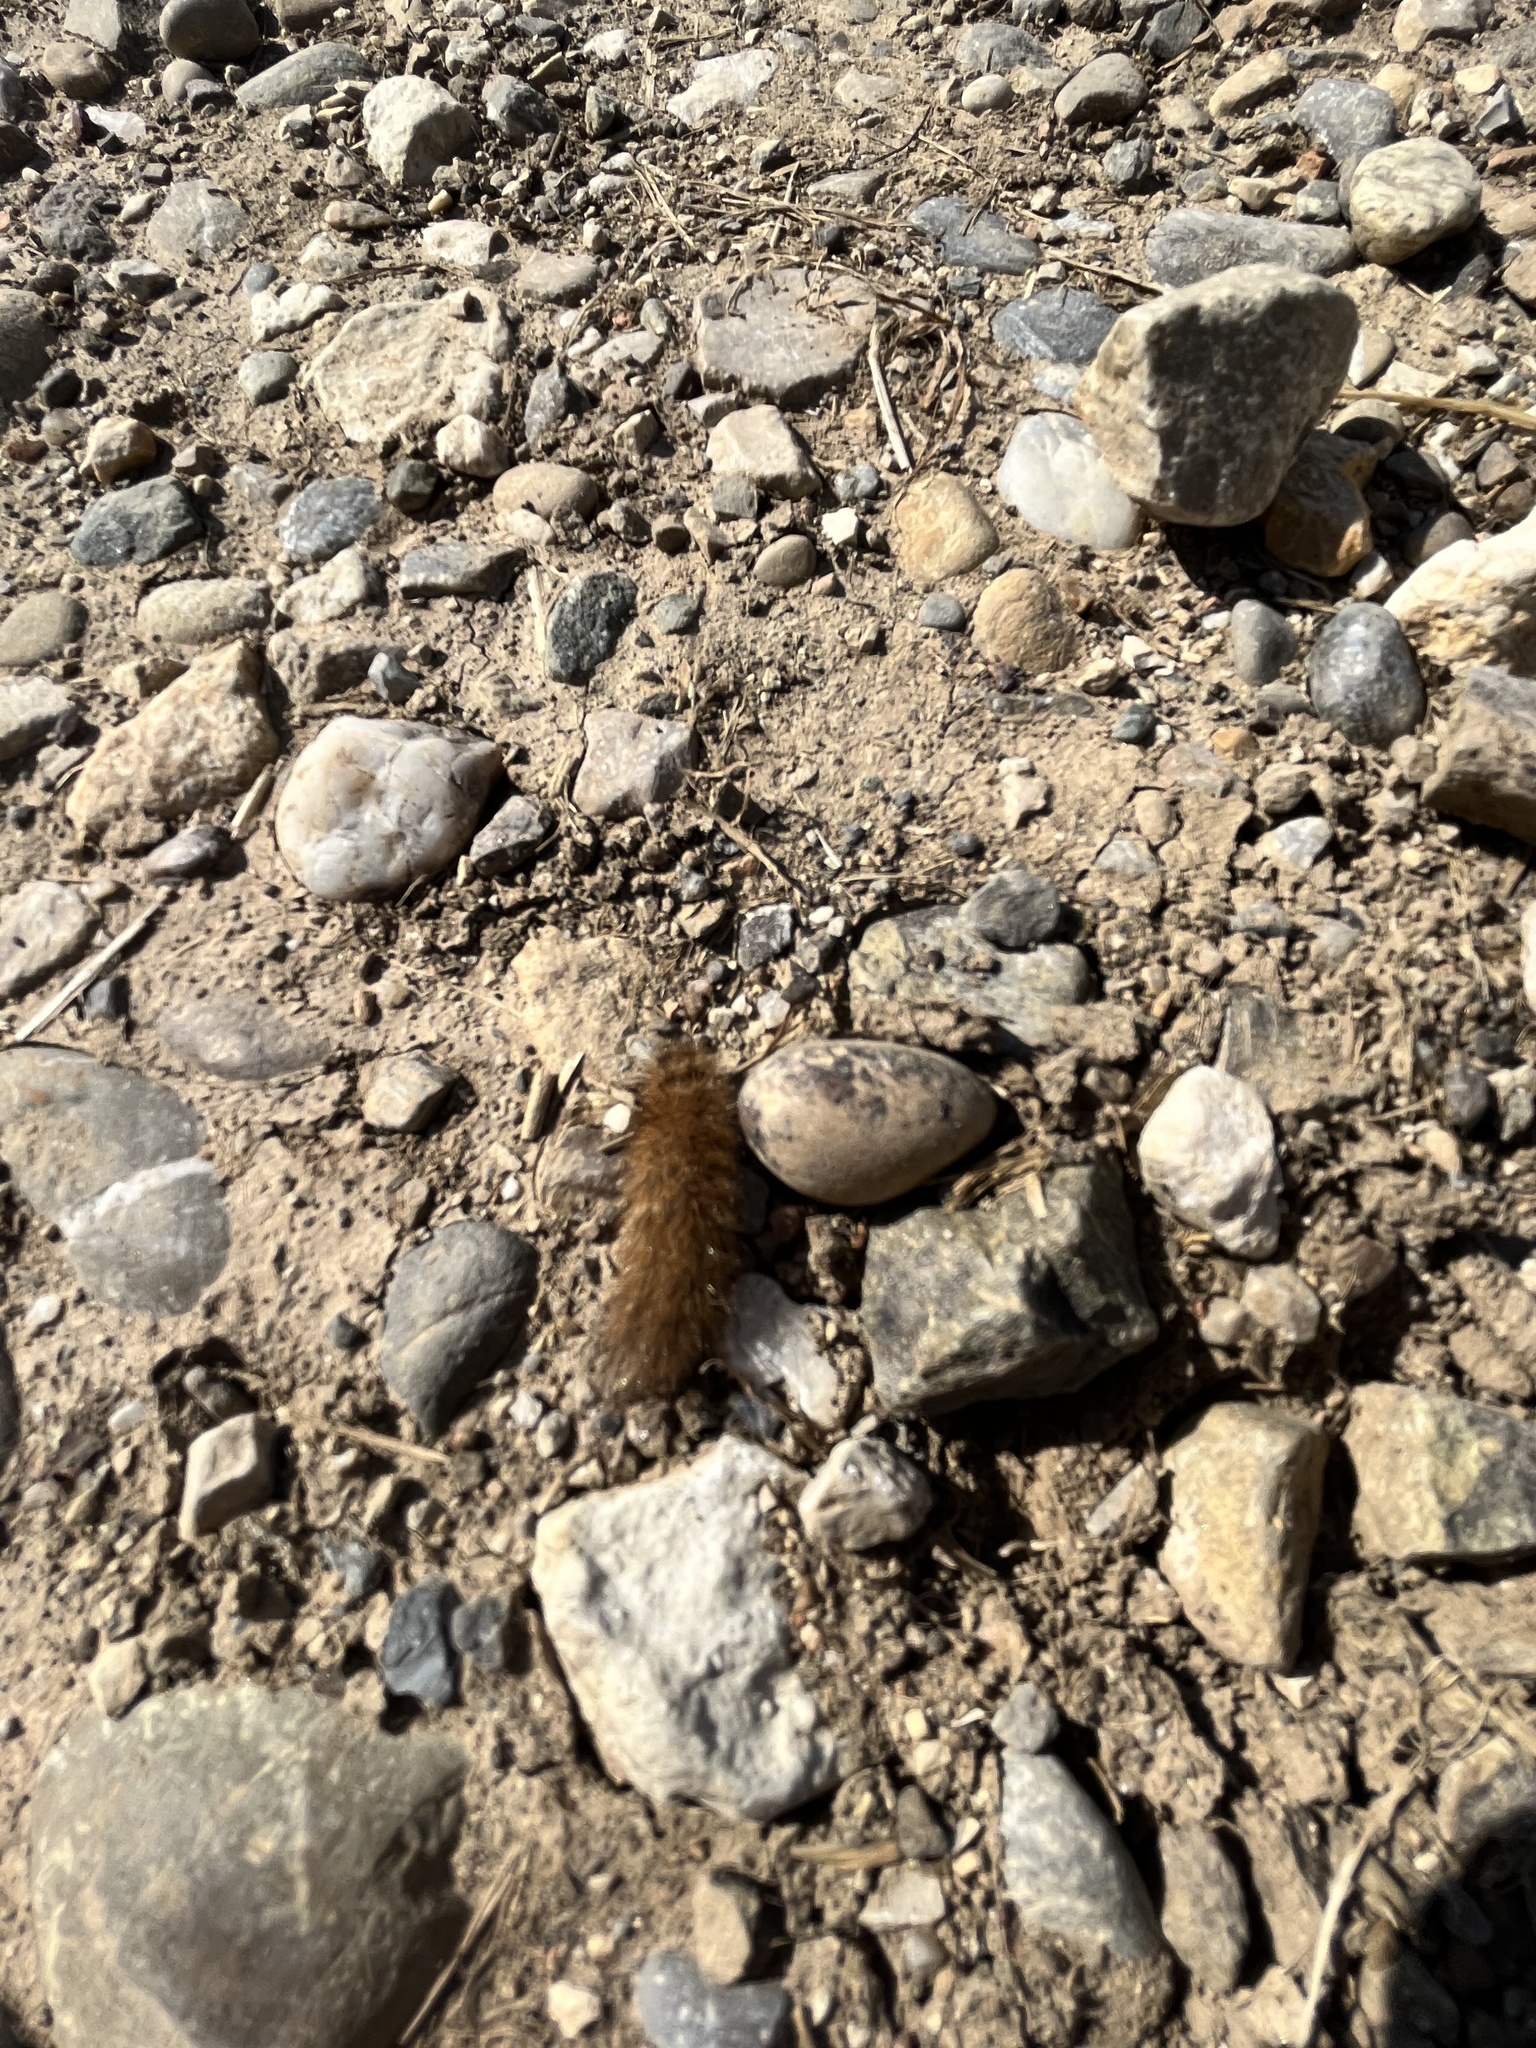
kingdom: Animalia
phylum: Arthropoda
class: Insecta
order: Lepidoptera
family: Erebidae
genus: Phragmatobia
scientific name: Phragmatobia fuliginosa
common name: Ruby tiger
